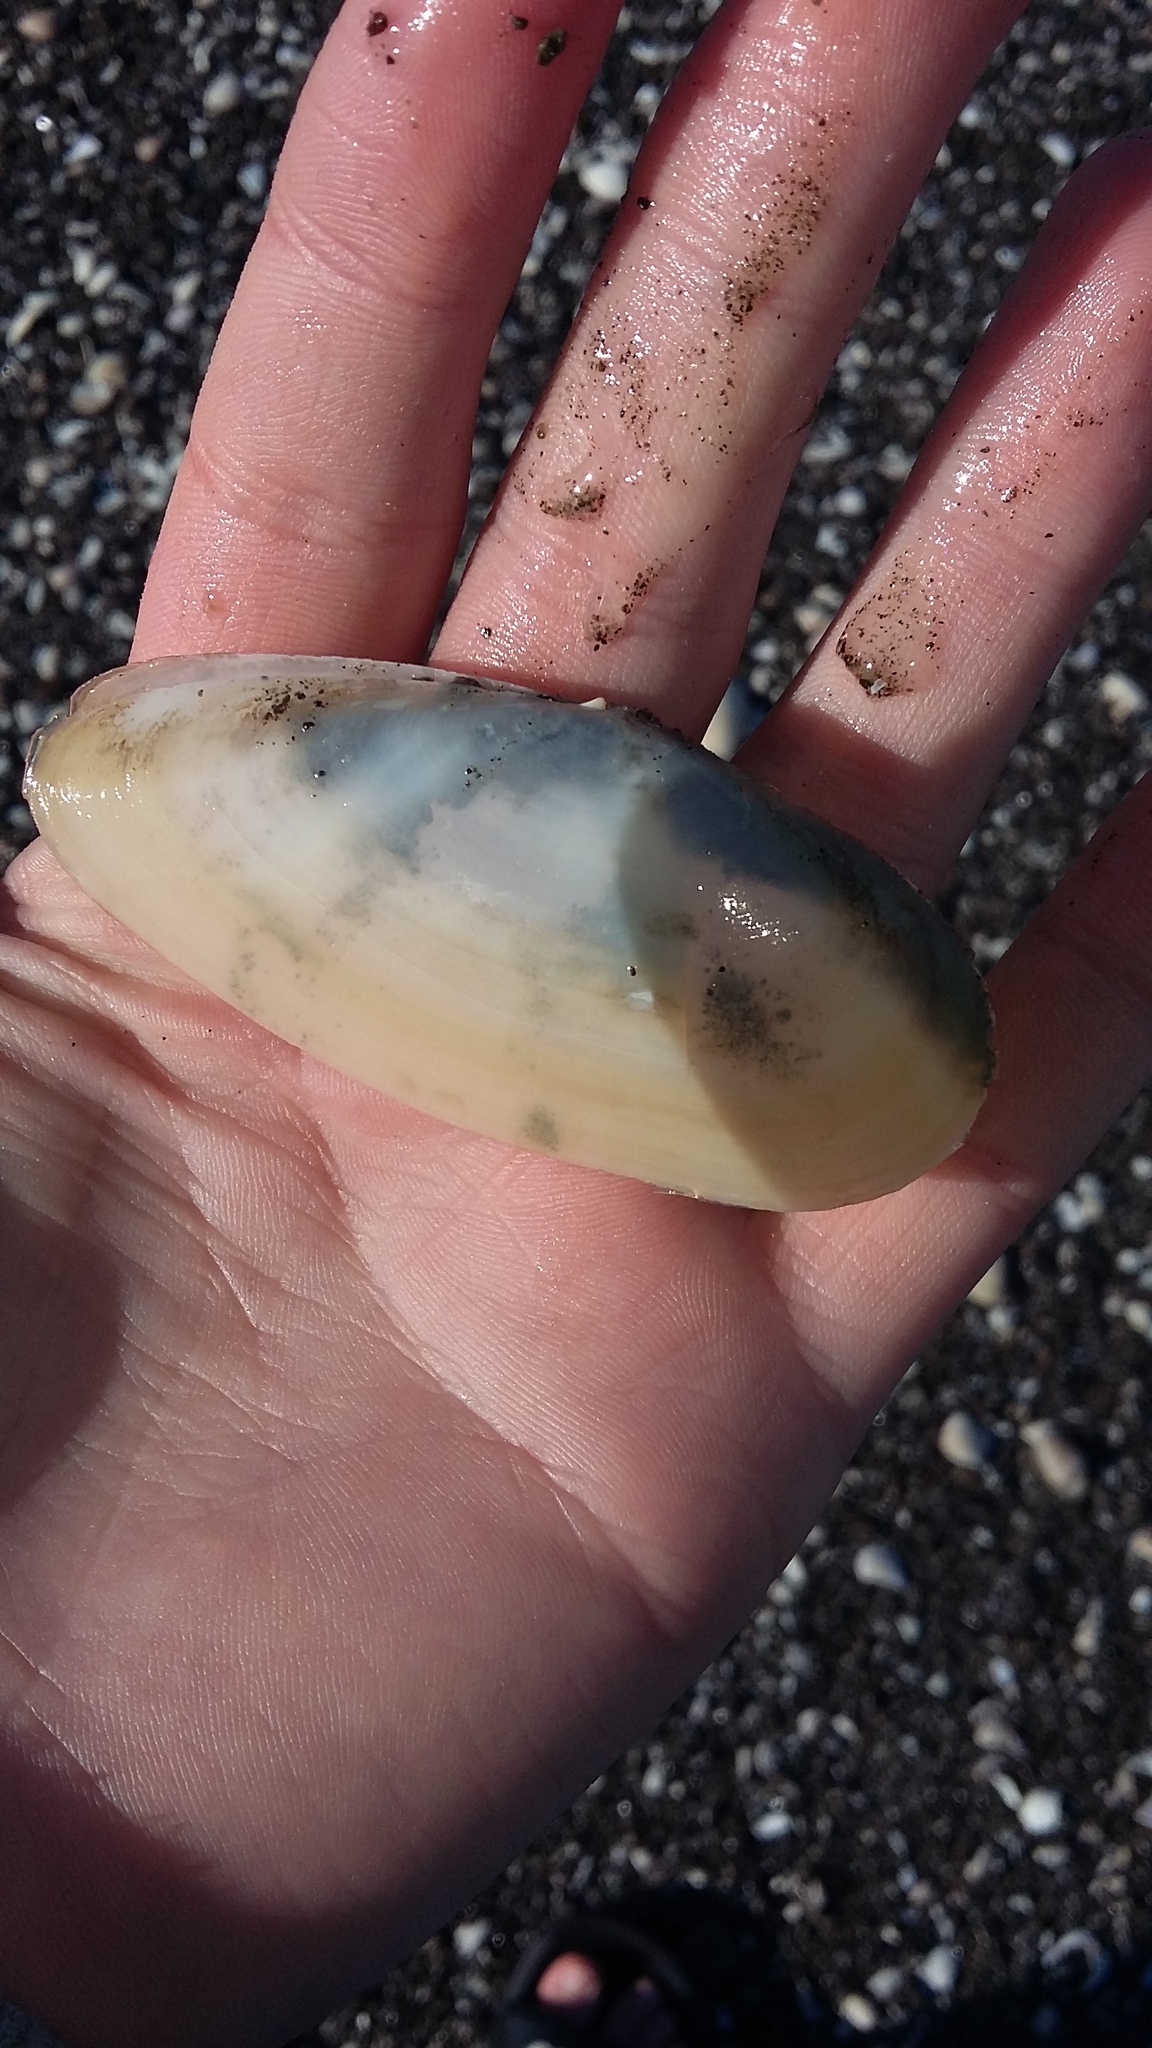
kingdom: Animalia
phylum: Mollusca
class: Bivalvia
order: Venerida
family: Mactridae
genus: Resania
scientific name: Resania lanceolata
